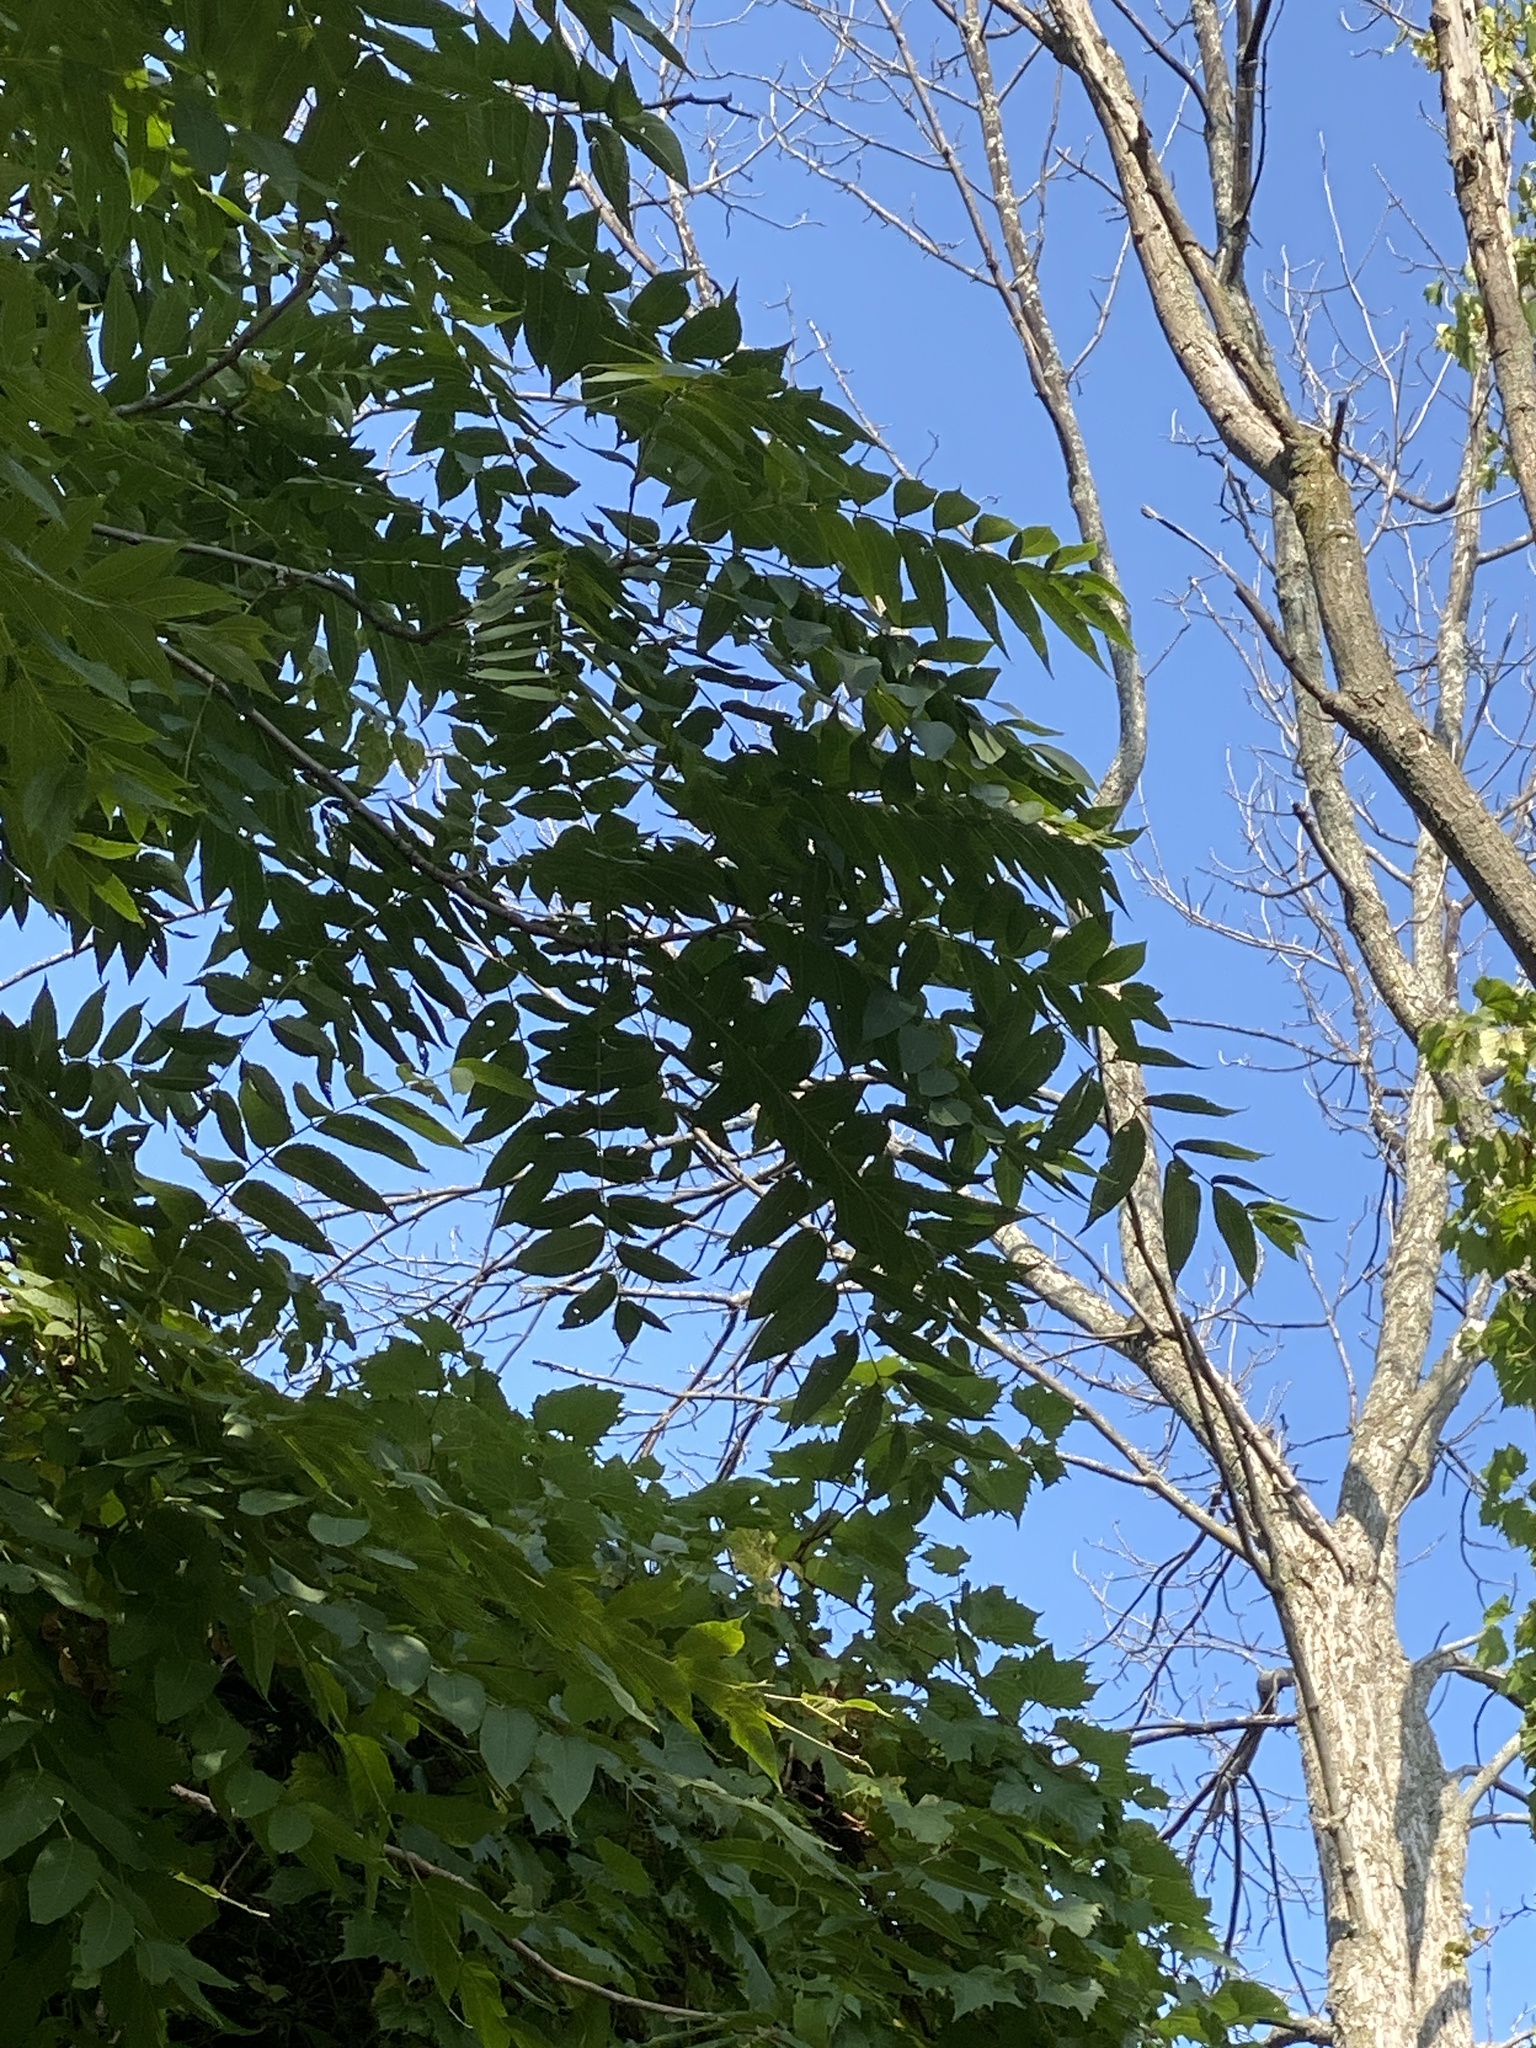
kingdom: Plantae
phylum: Tracheophyta
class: Magnoliopsida
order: Fagales
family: Juglandaceae
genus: Juglans
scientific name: Juglans nigra
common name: Black walnut
